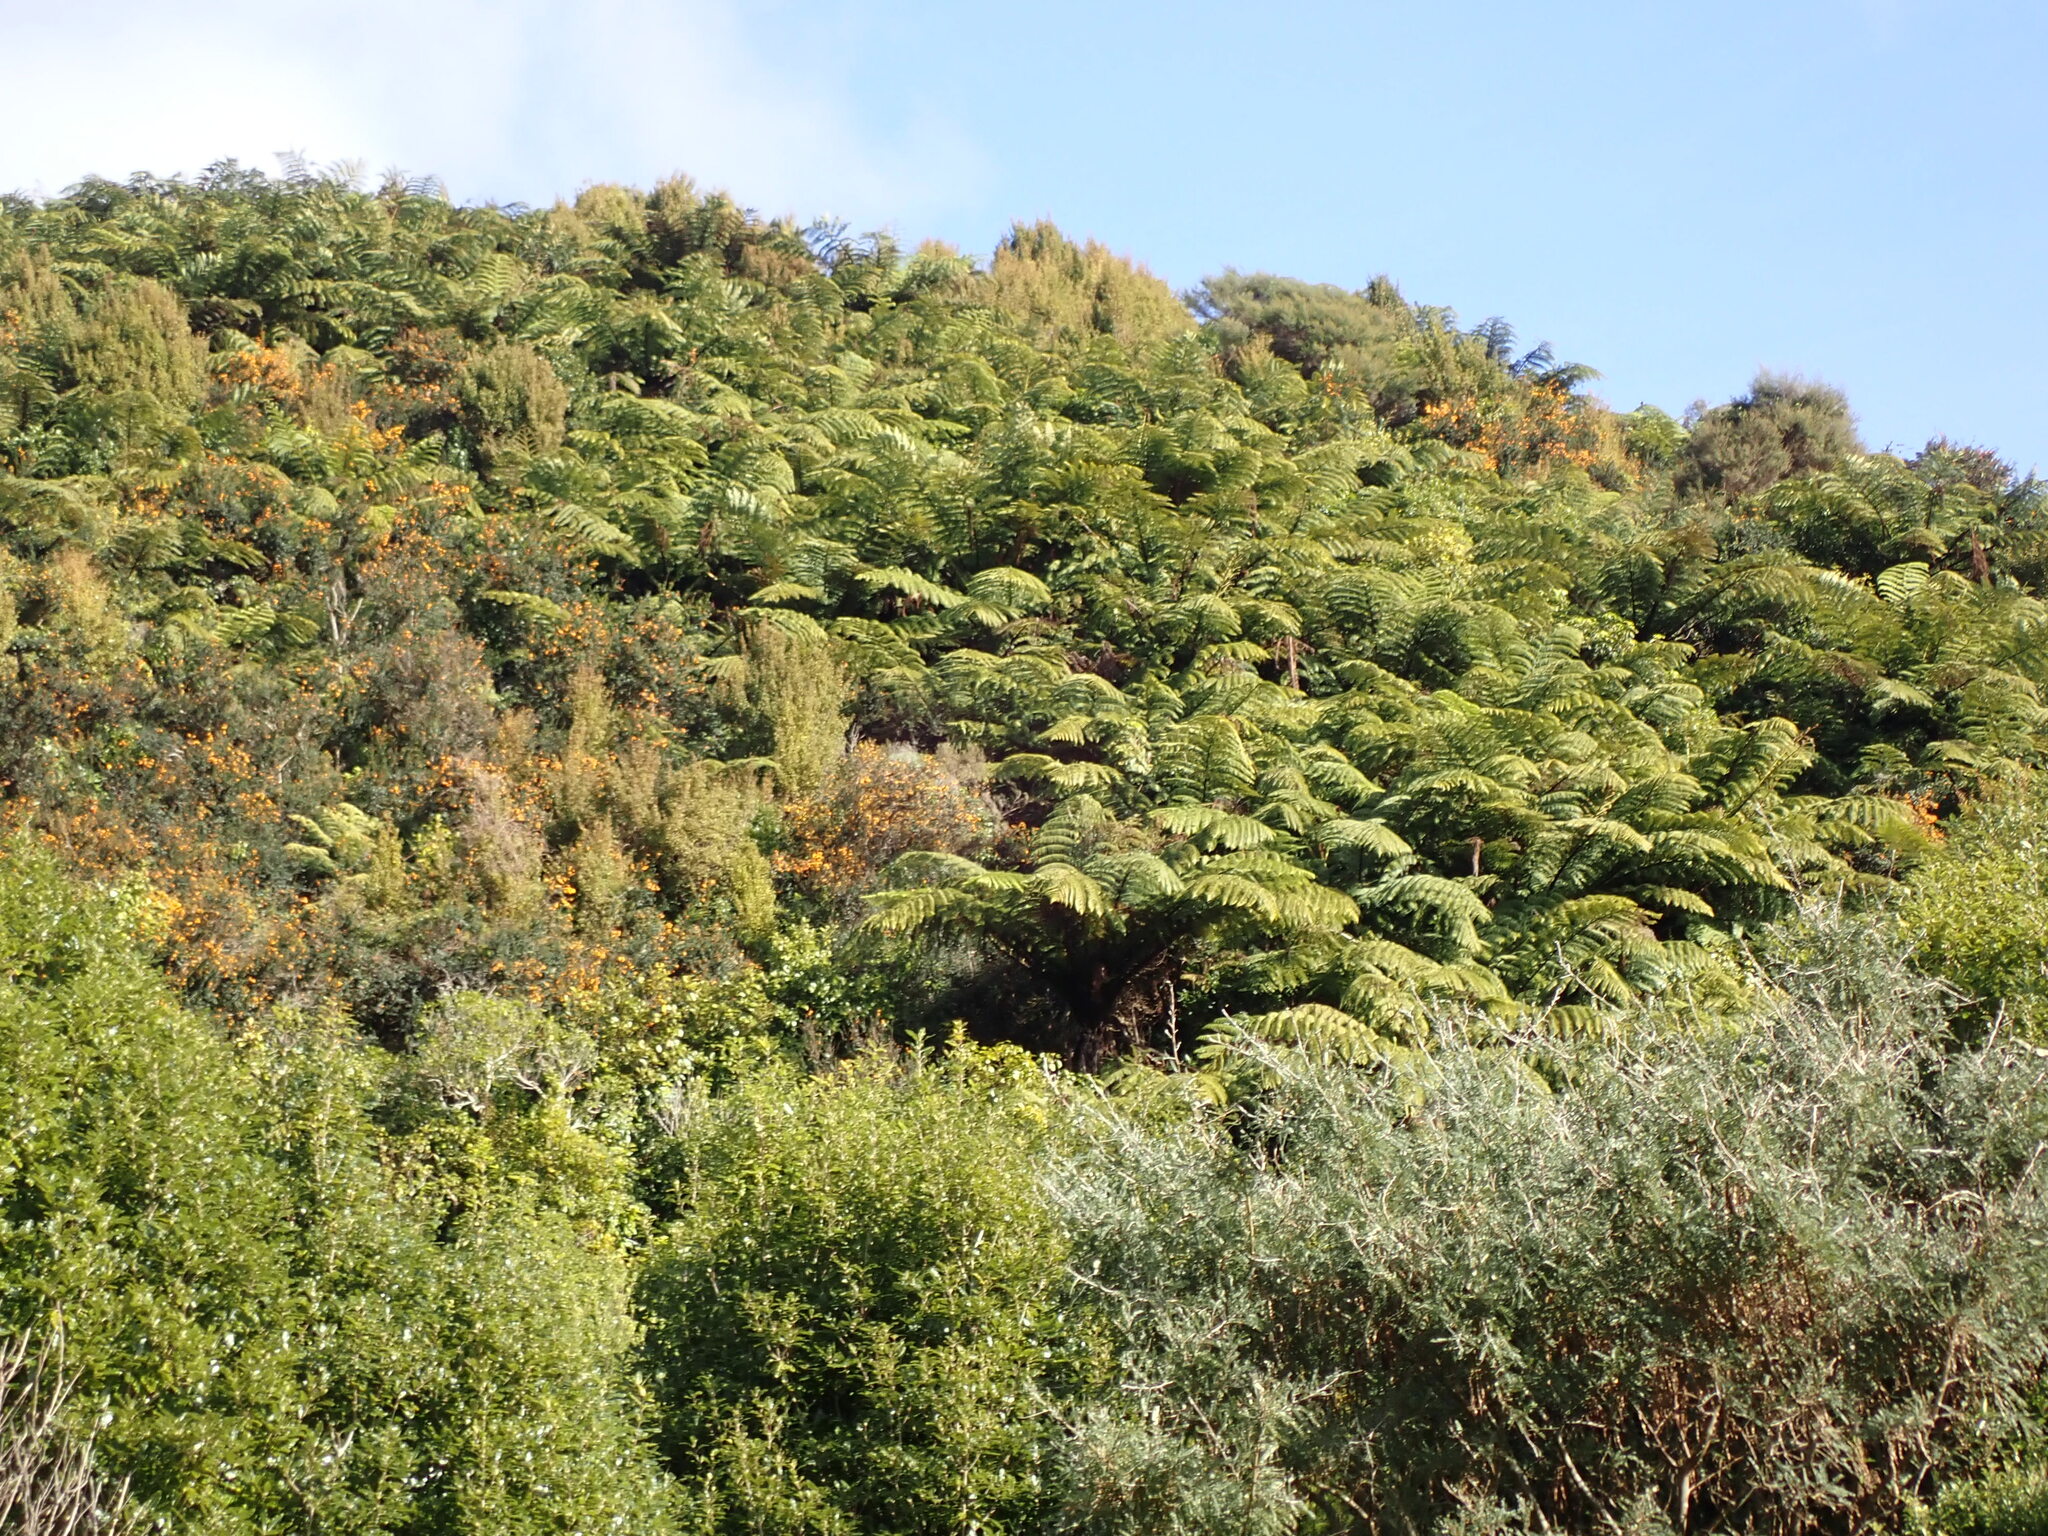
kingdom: Plantae
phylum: Tracheophyta
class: Polypodiopsida
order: Cyatheales
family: Cyatheaceae
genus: Sphaeropteris
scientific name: Sphaeropteris medullaris
